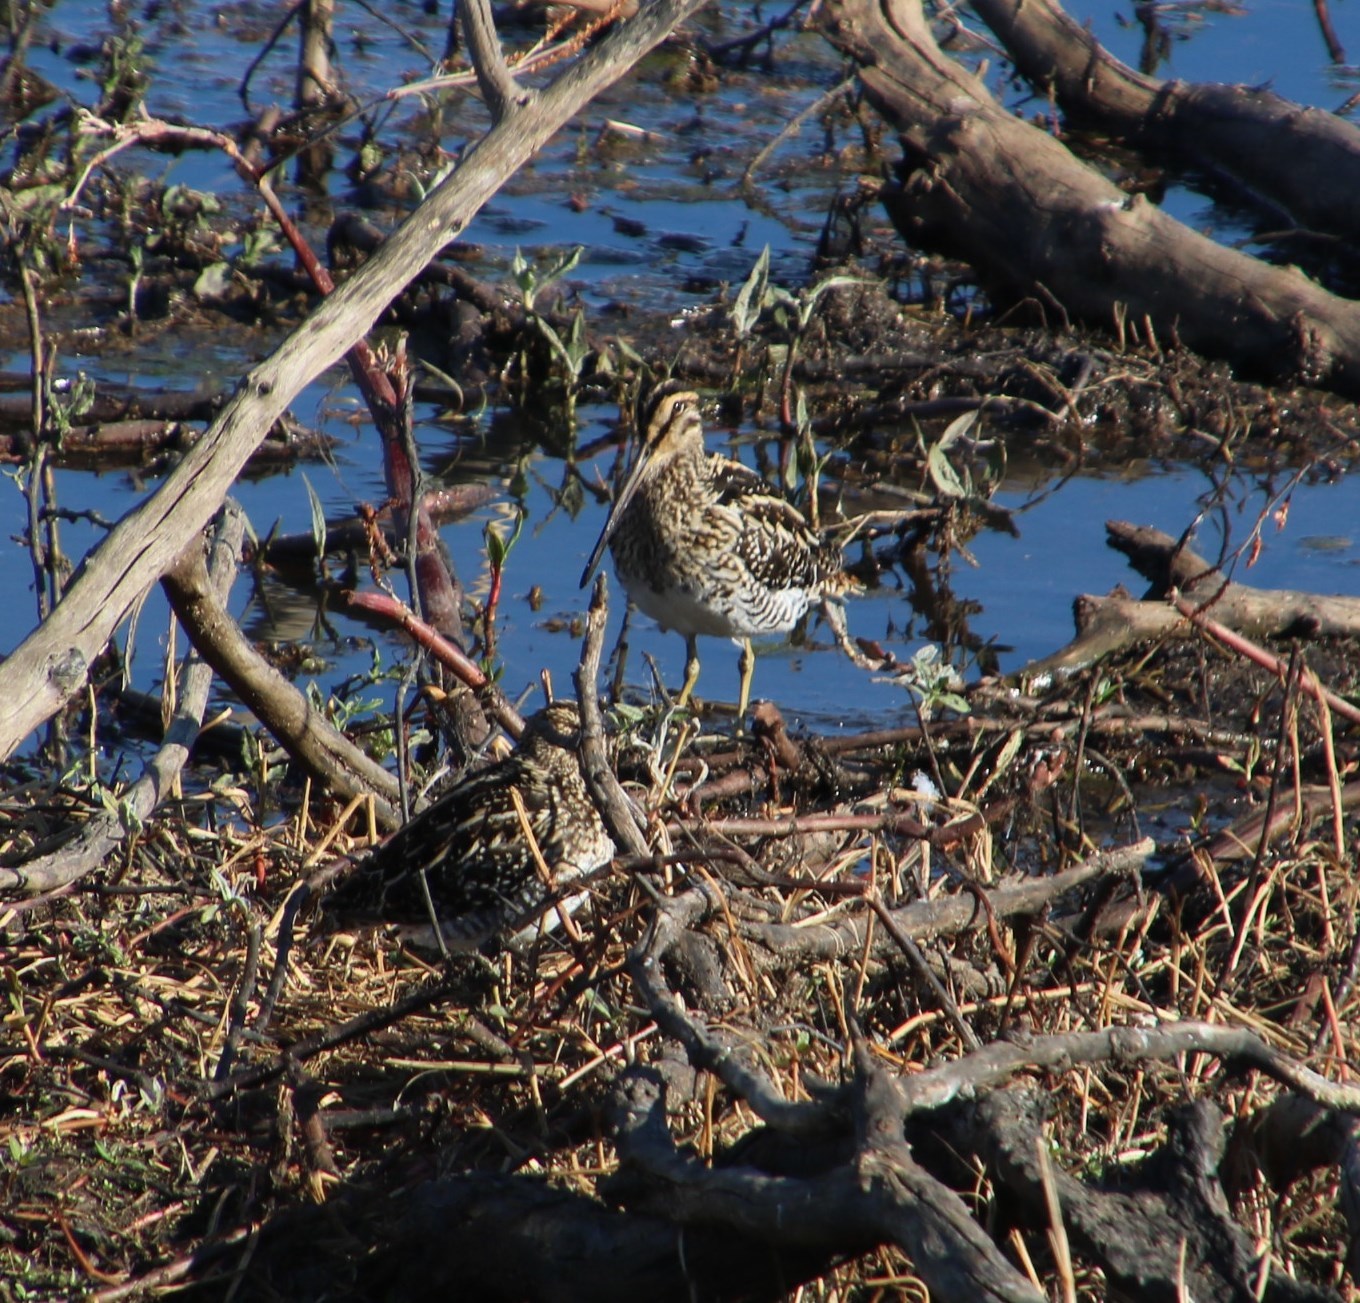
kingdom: Animalia
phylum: Chordata
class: Aves
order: Charadriiformes
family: Scolopacidae
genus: Gallinago
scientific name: Gallinago nigripennis
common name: African snipe
